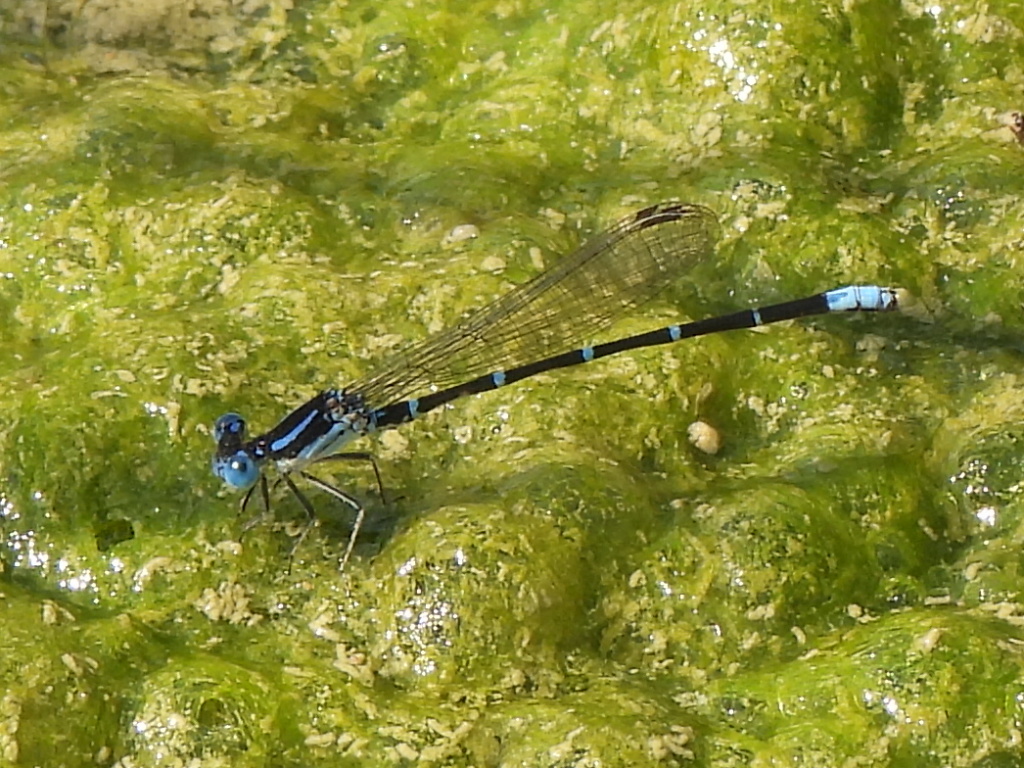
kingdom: Animalia
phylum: Arthropoda
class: Insecta
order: Odonata
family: Coenagrionidae
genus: Argia
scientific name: Argia sedula
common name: Blue-ringed dancer
